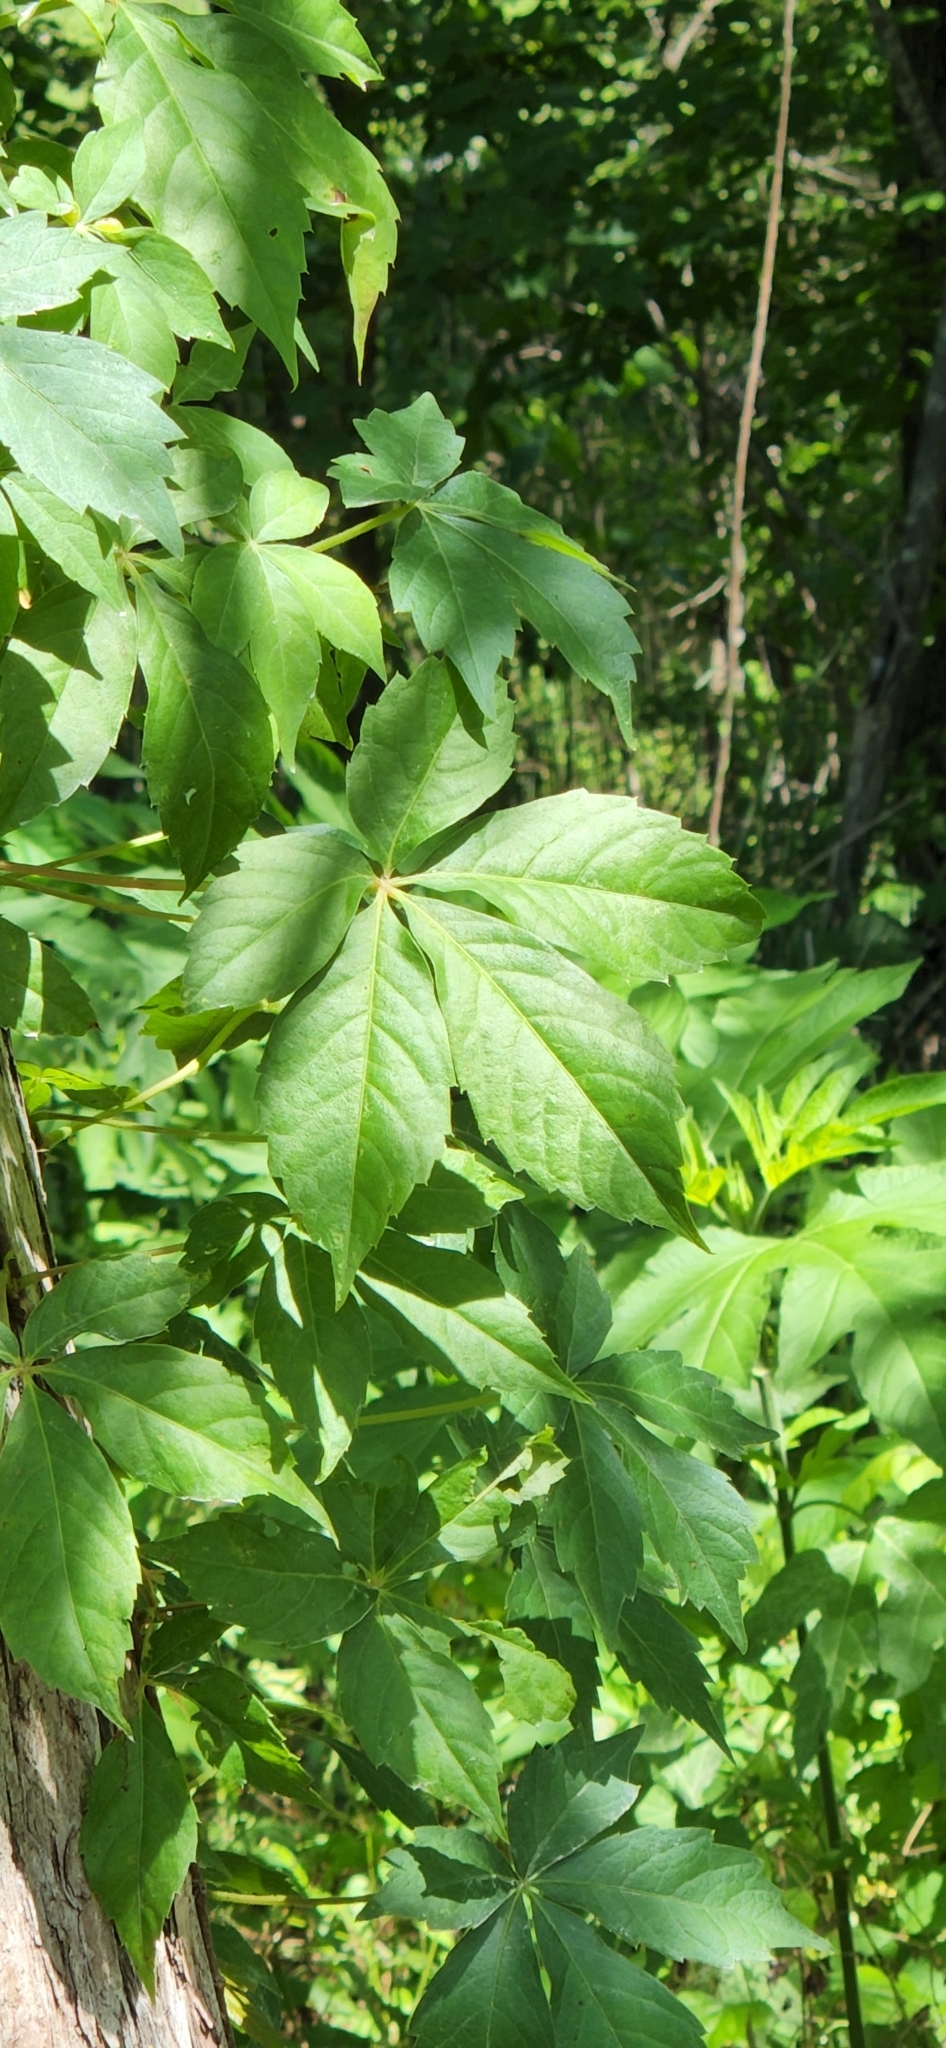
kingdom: Plantae
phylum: Tracheophyta
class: Magnoliopsida
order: Vitales
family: Vitaceae
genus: Parthenocissus
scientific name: Parthenocissus quinquefolia
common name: Virginia-creeper
